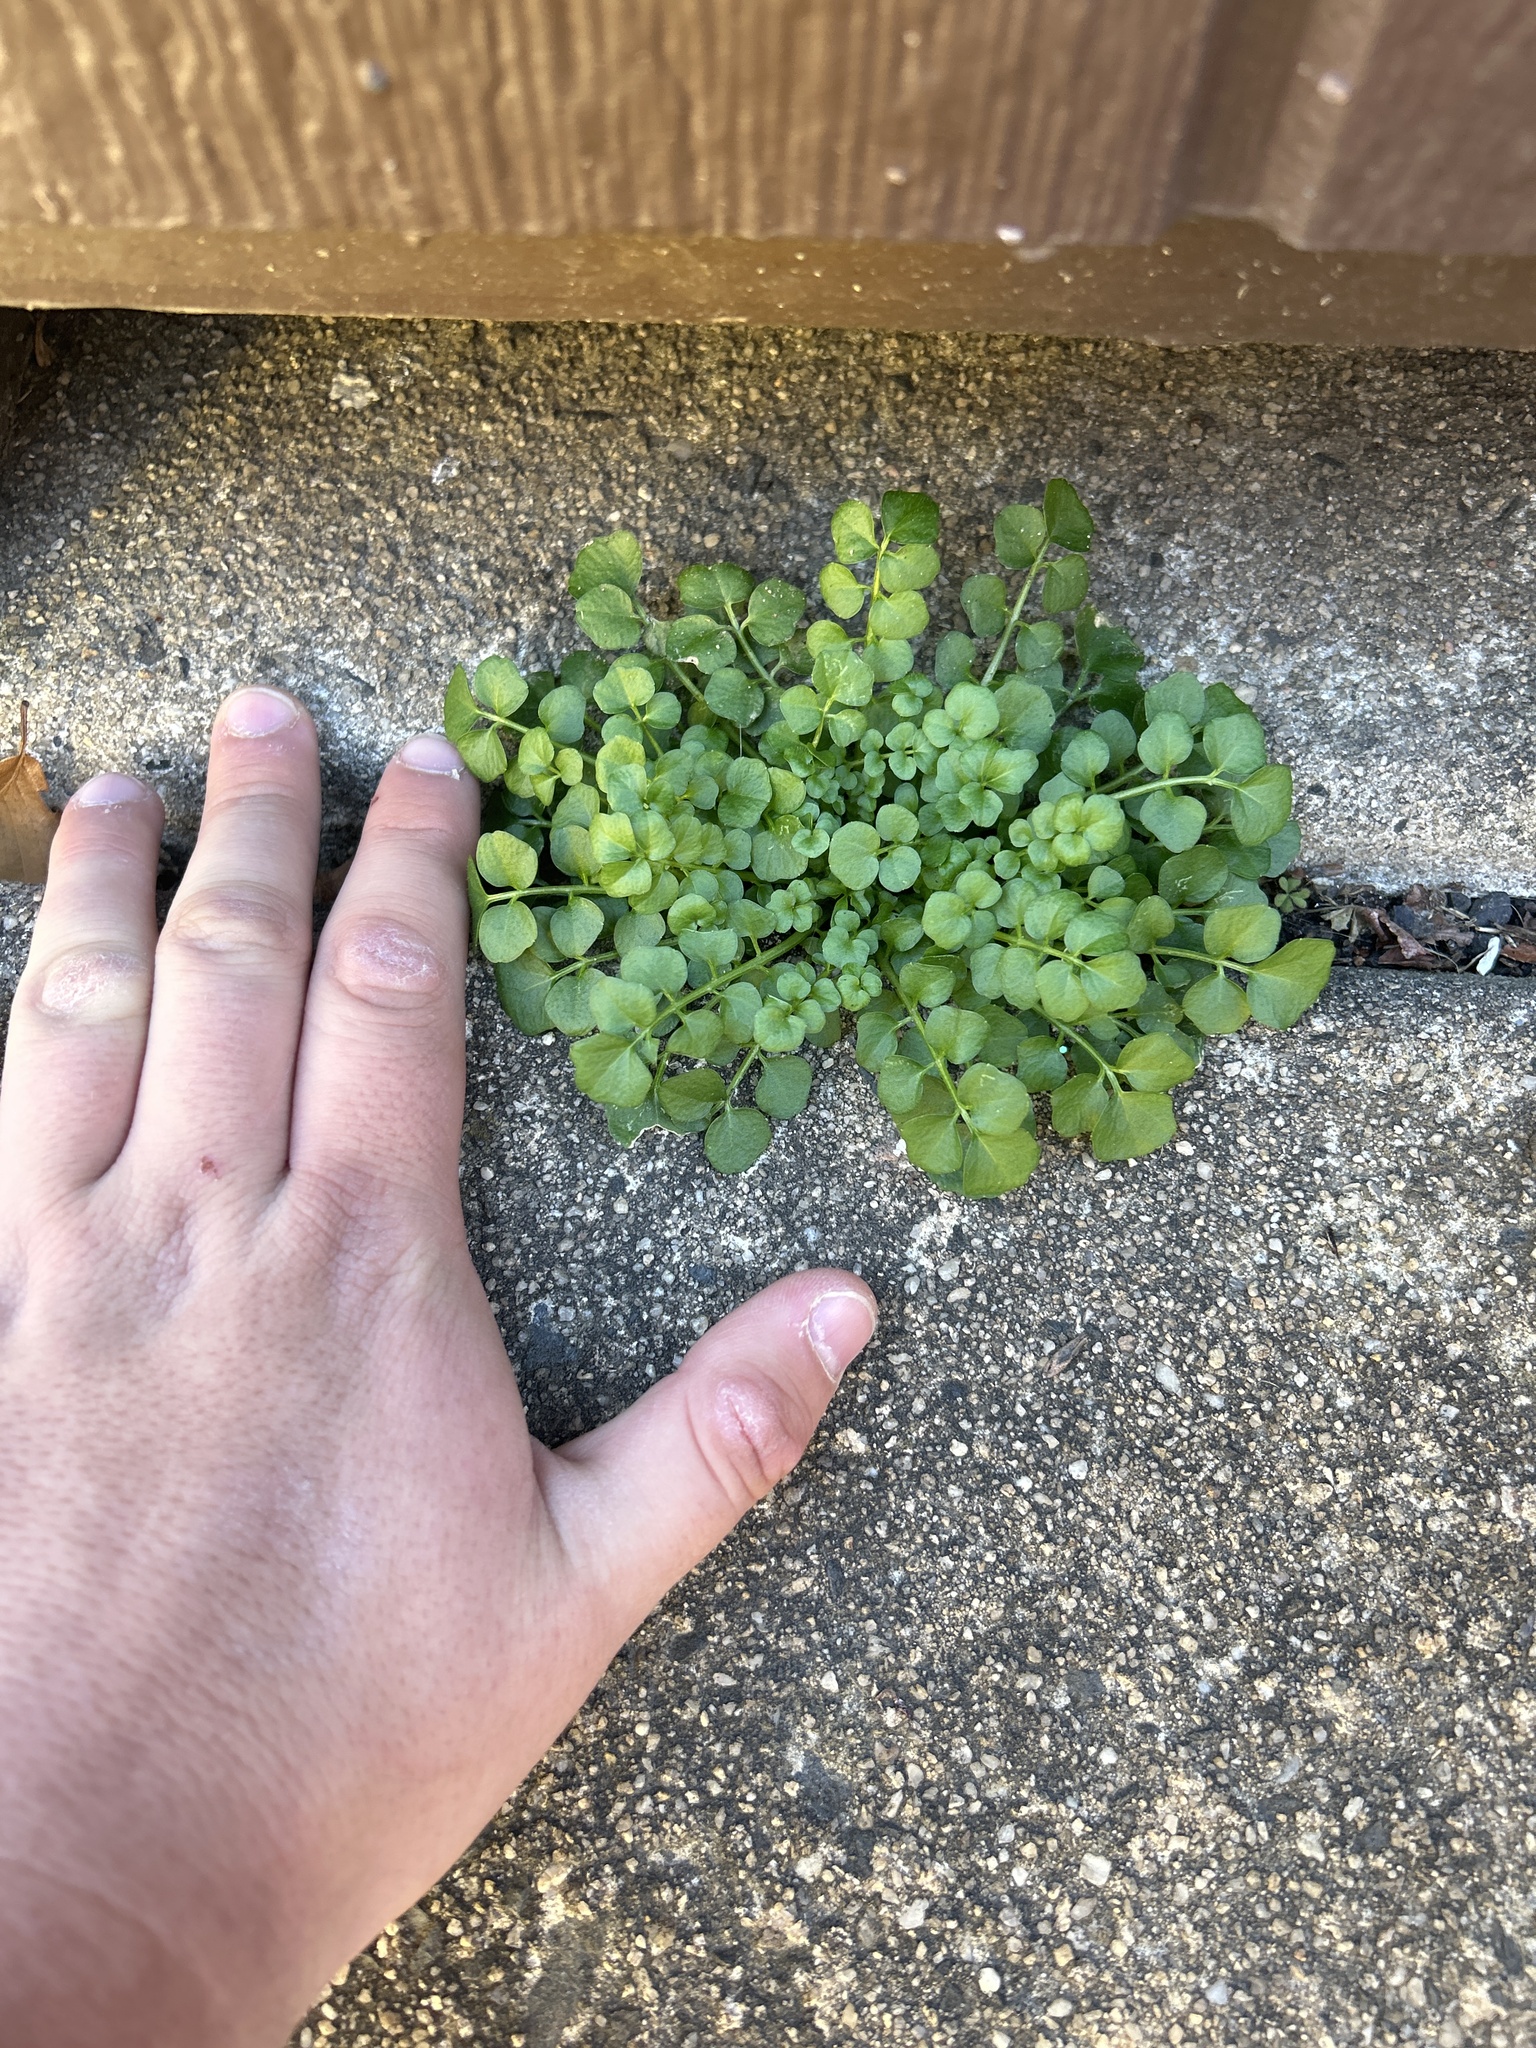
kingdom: Plantae
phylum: Tracheophyta
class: Magnoliopsida
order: Brassicales
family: Brassicaceae
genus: Cardamine
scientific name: Cardamine hirsuta
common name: Hairy bittercress
